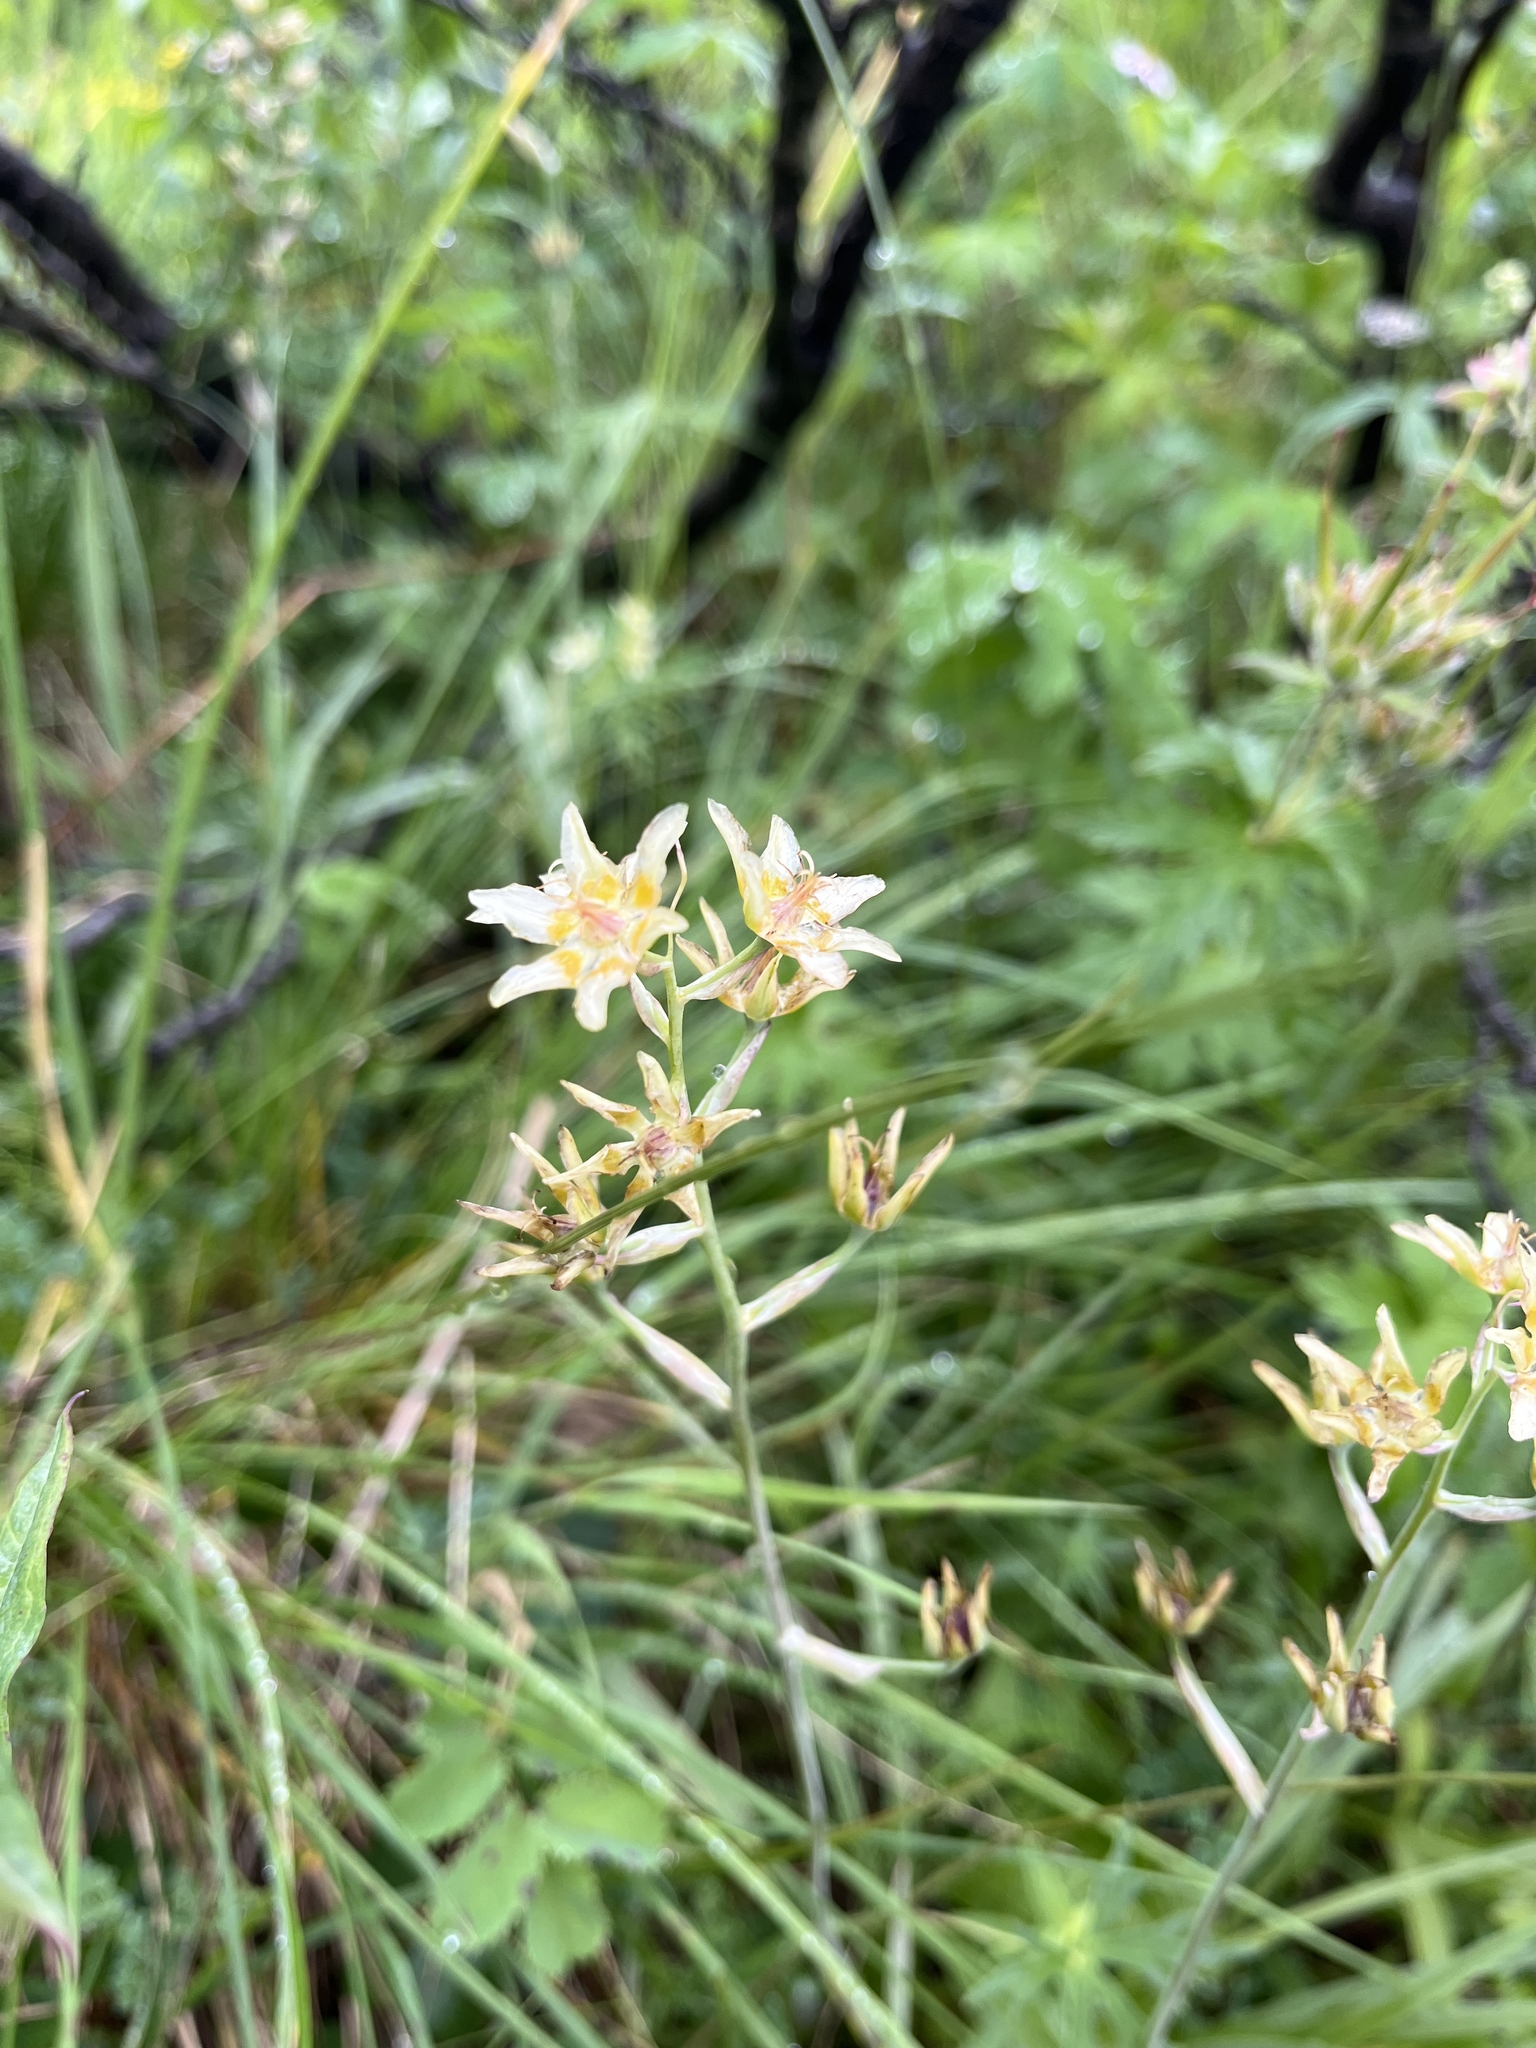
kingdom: Plantae
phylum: Tracheophyta
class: Liliopsida
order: Liliales
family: Melanthiaceae
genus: Anticlea
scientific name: Anticlea elegans
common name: Mountain death camas
